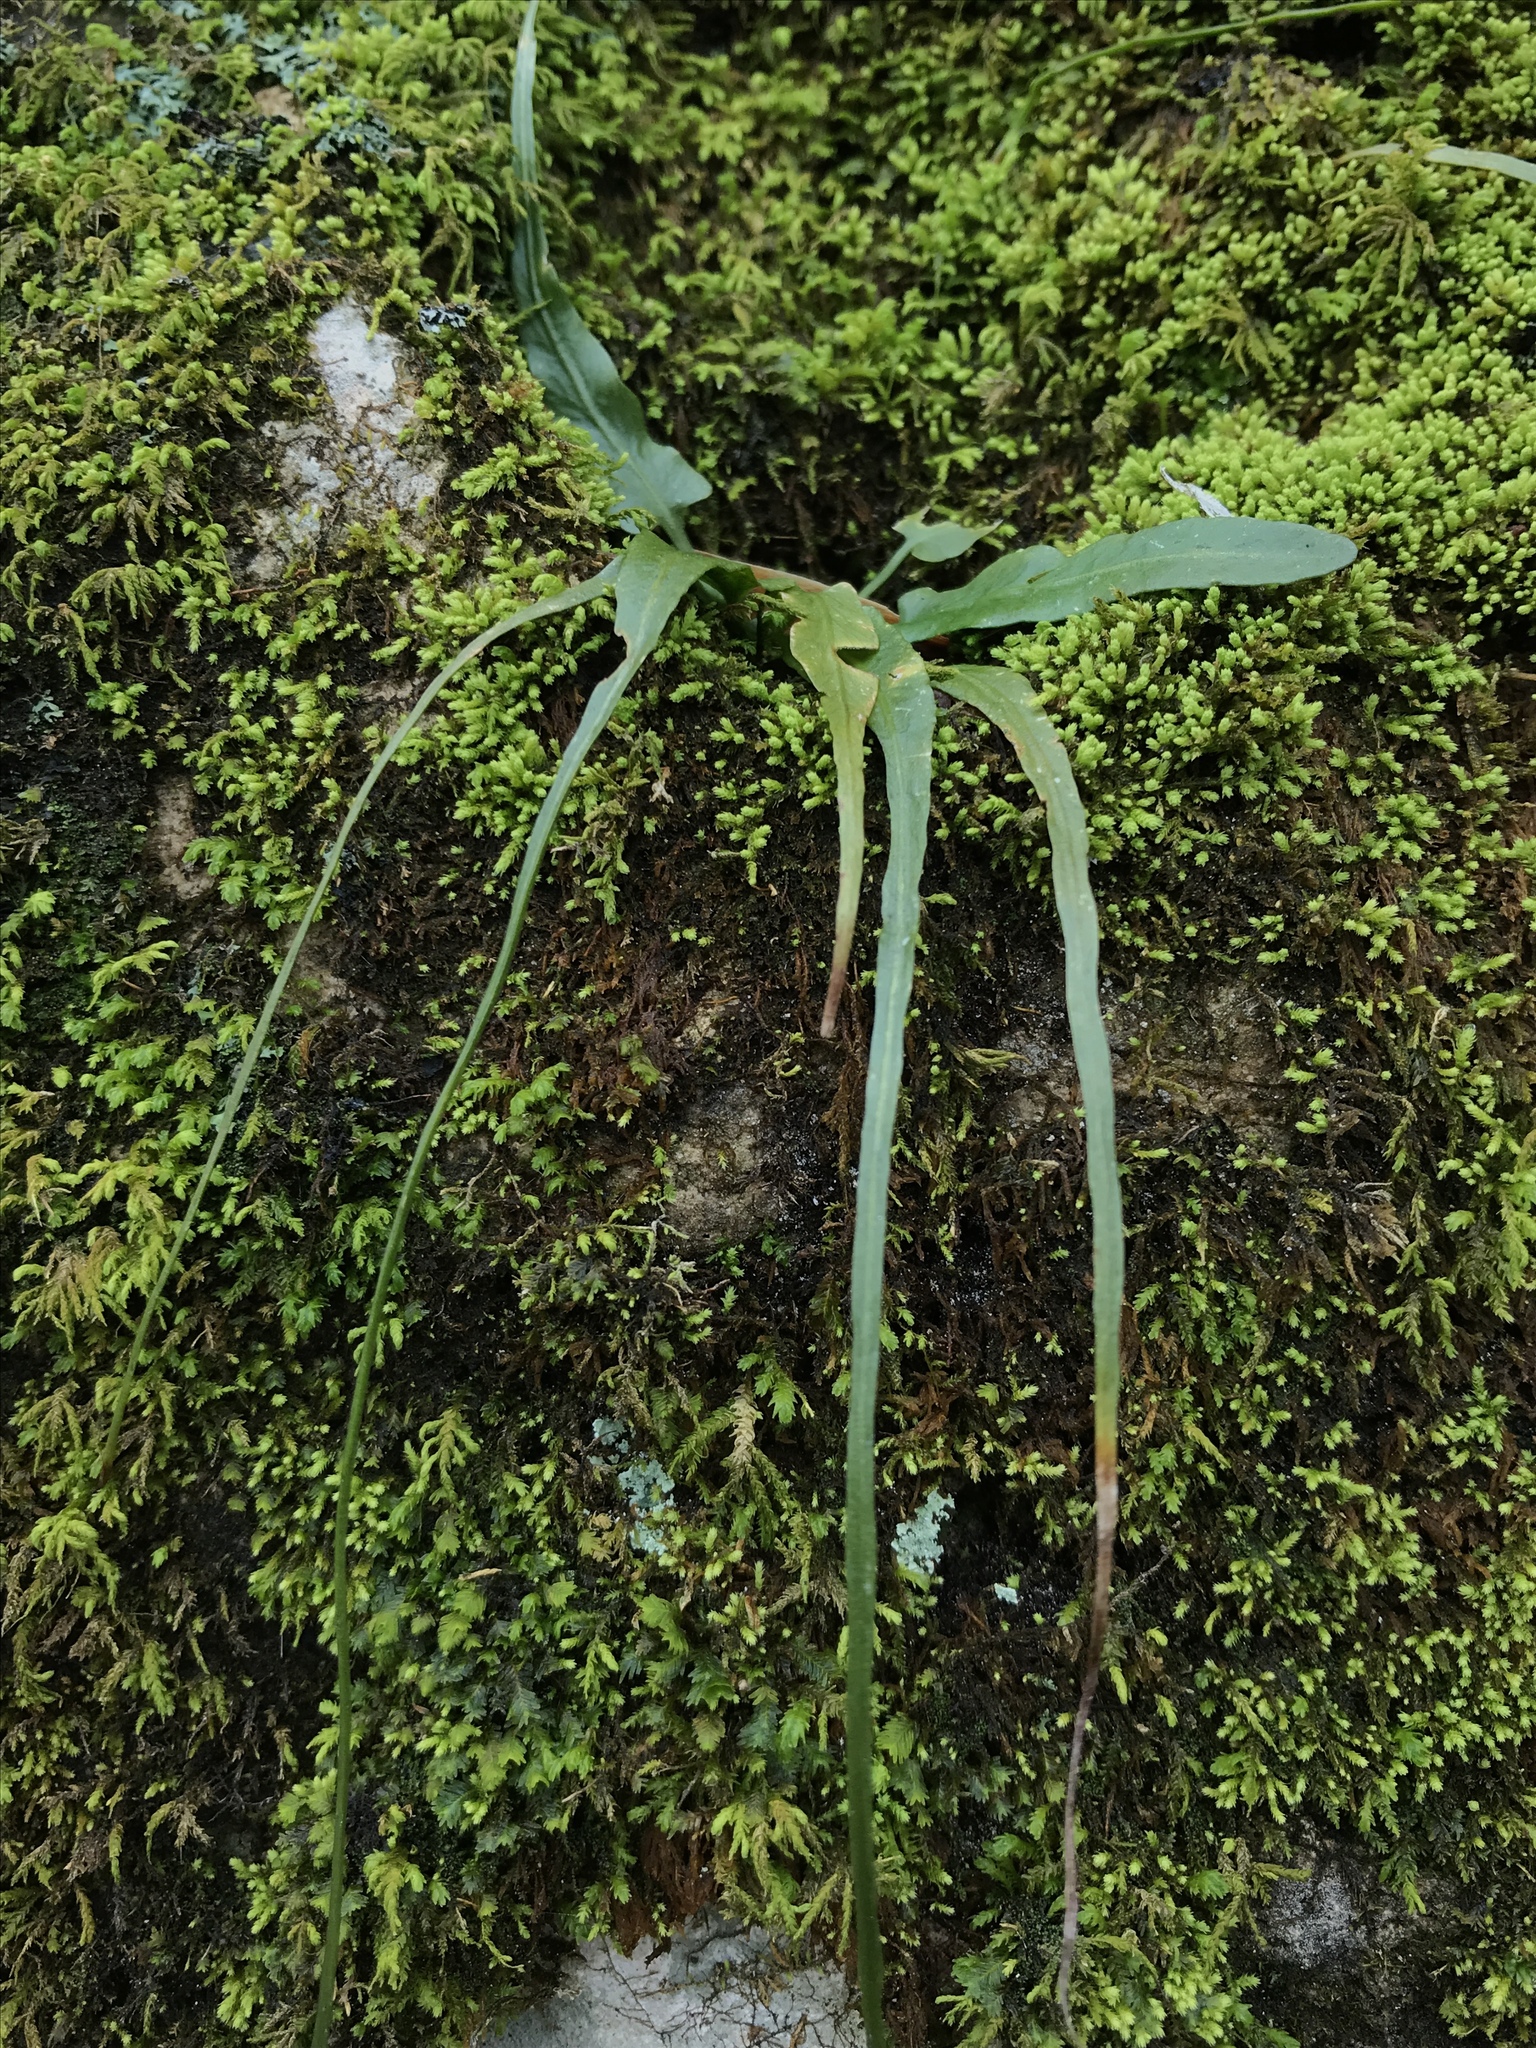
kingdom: Plantae
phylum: Tracheophyta
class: Polypodiopsida
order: Polypodiales
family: Aspleniaceae
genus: Asplenium
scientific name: Asplenium rhizophyllum
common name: Walking fern
